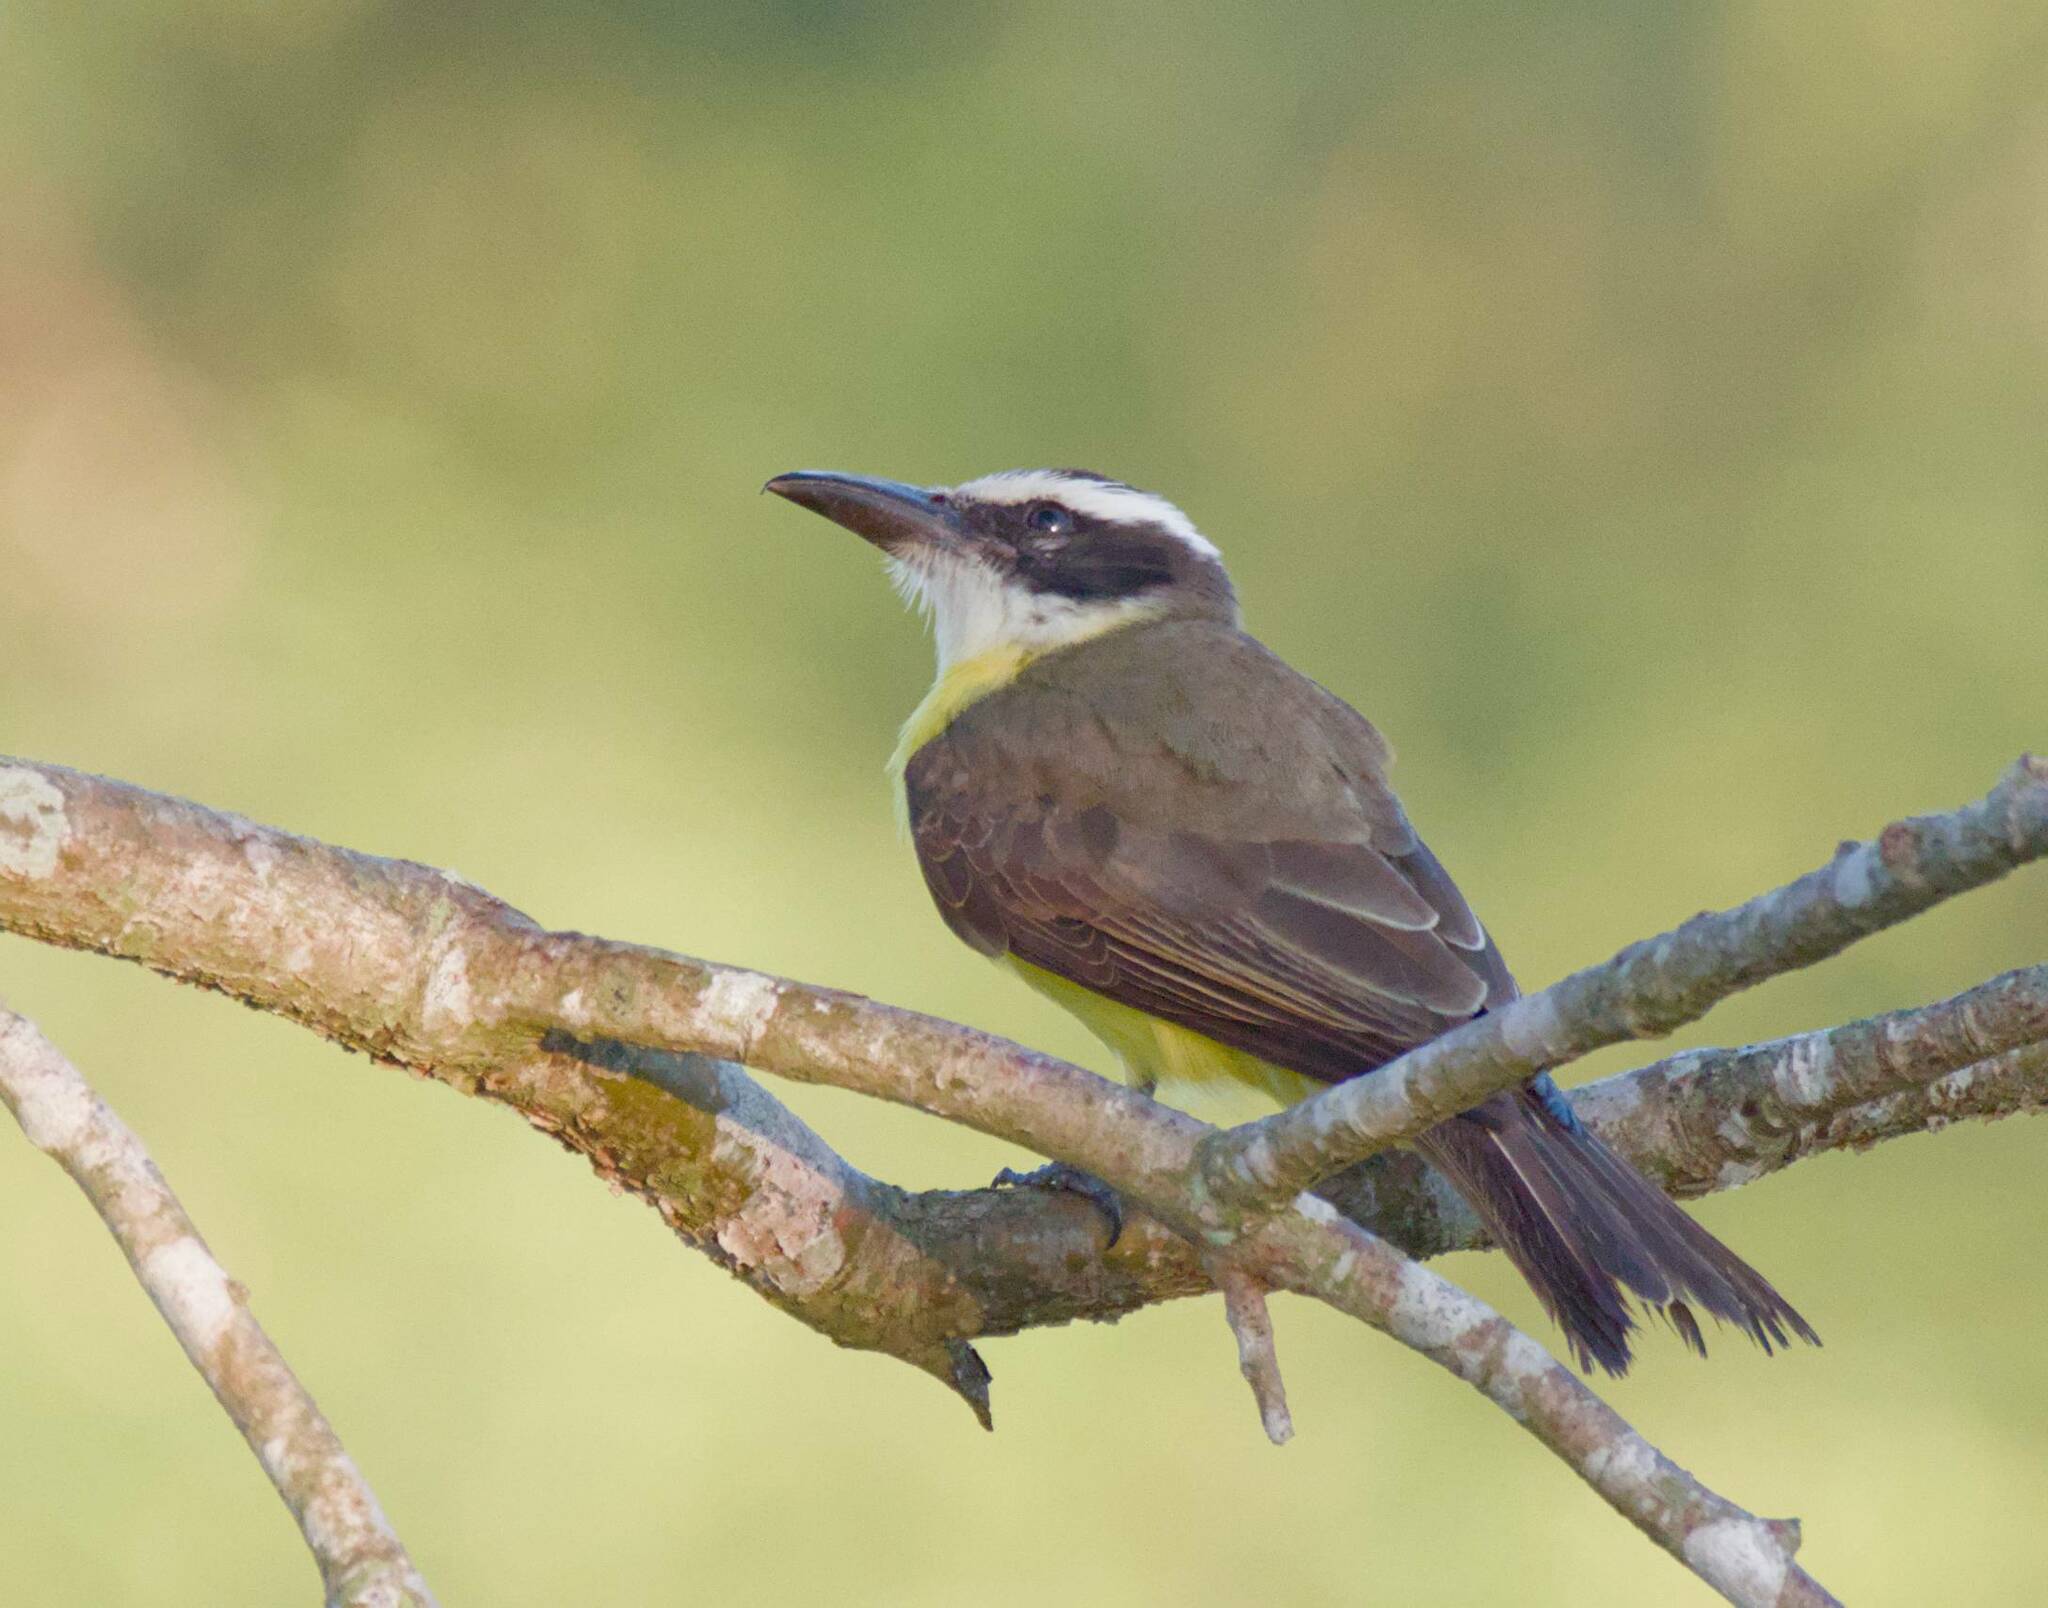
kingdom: Animalia
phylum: Chordata
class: Aves
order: Passeriformes
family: Tyrannidae
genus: Megarynchus
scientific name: Megarynchus pitangua
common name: Boat-billed flycatcher
